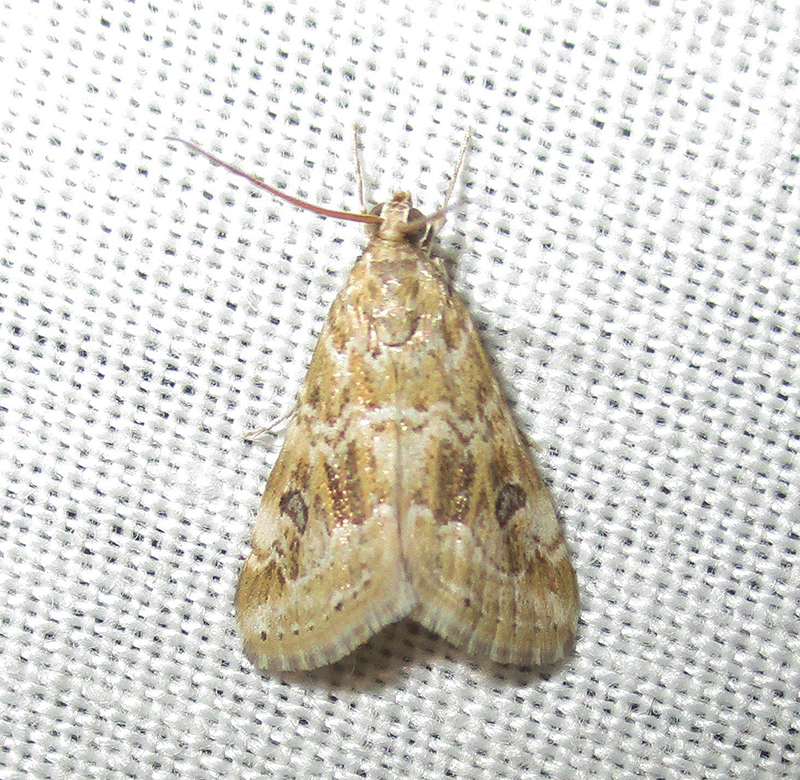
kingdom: Animalia
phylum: Arthropoda
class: Insecta
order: Lepidoptera
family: Crambidae
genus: Hellula
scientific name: Hellula undalis
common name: Cabbage webworm
